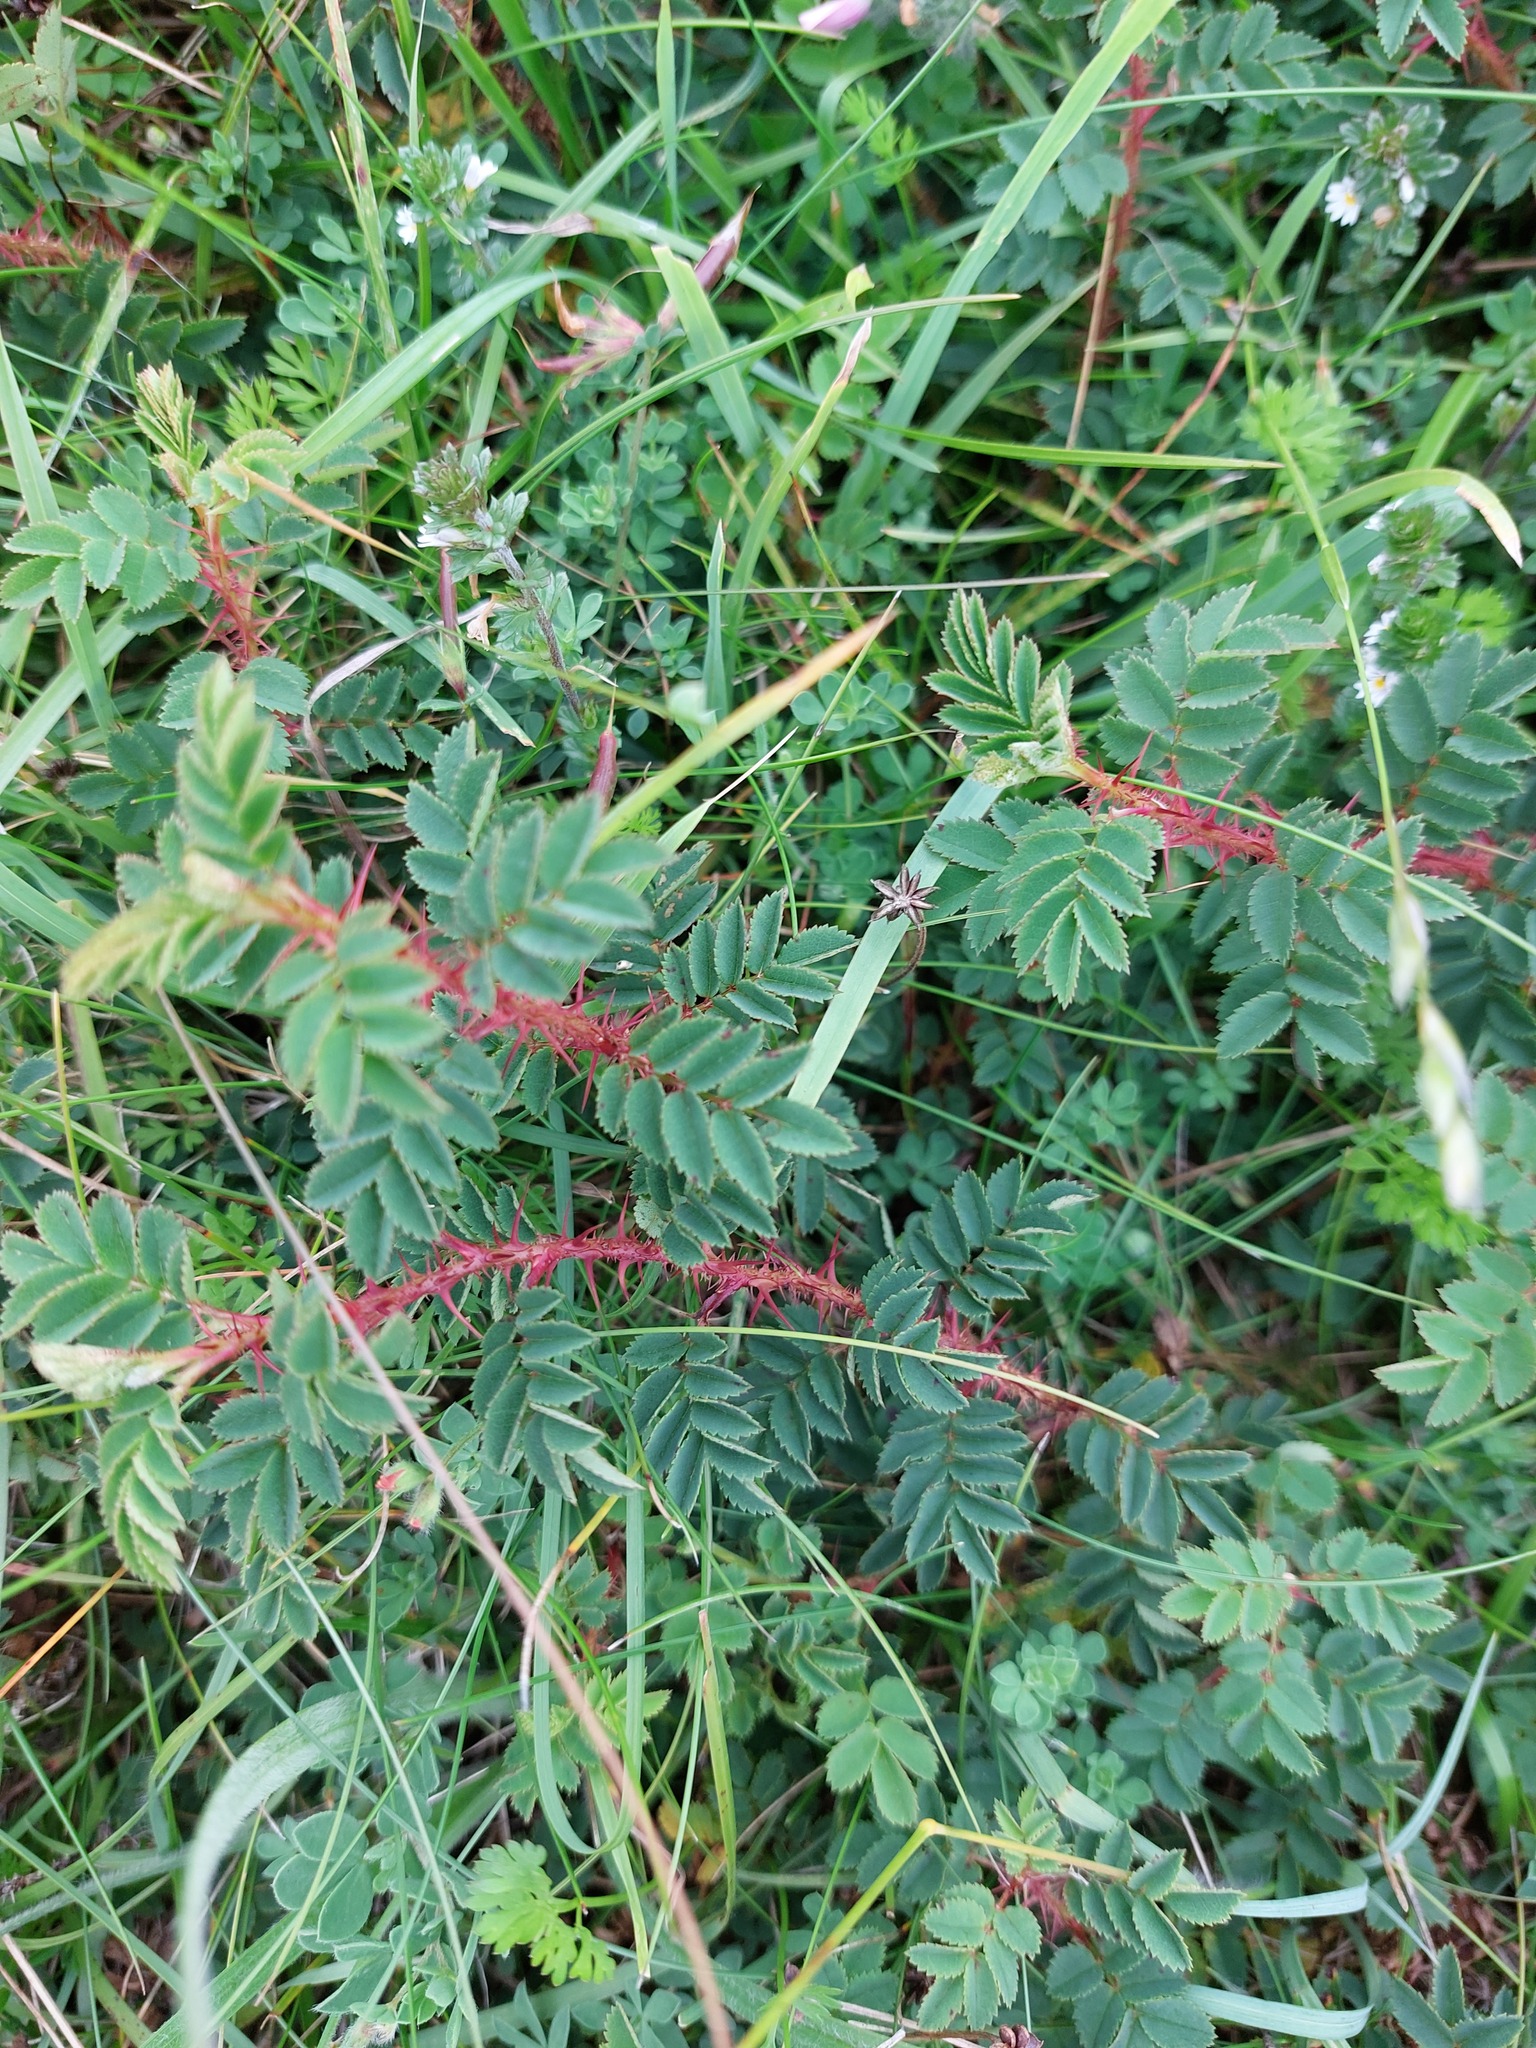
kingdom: Plantae
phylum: Tracheophyta
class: Magnoliopsida
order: Rosales
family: Rosaceae
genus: Rosa
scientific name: Rosa spinosissima
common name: Burnet rose
